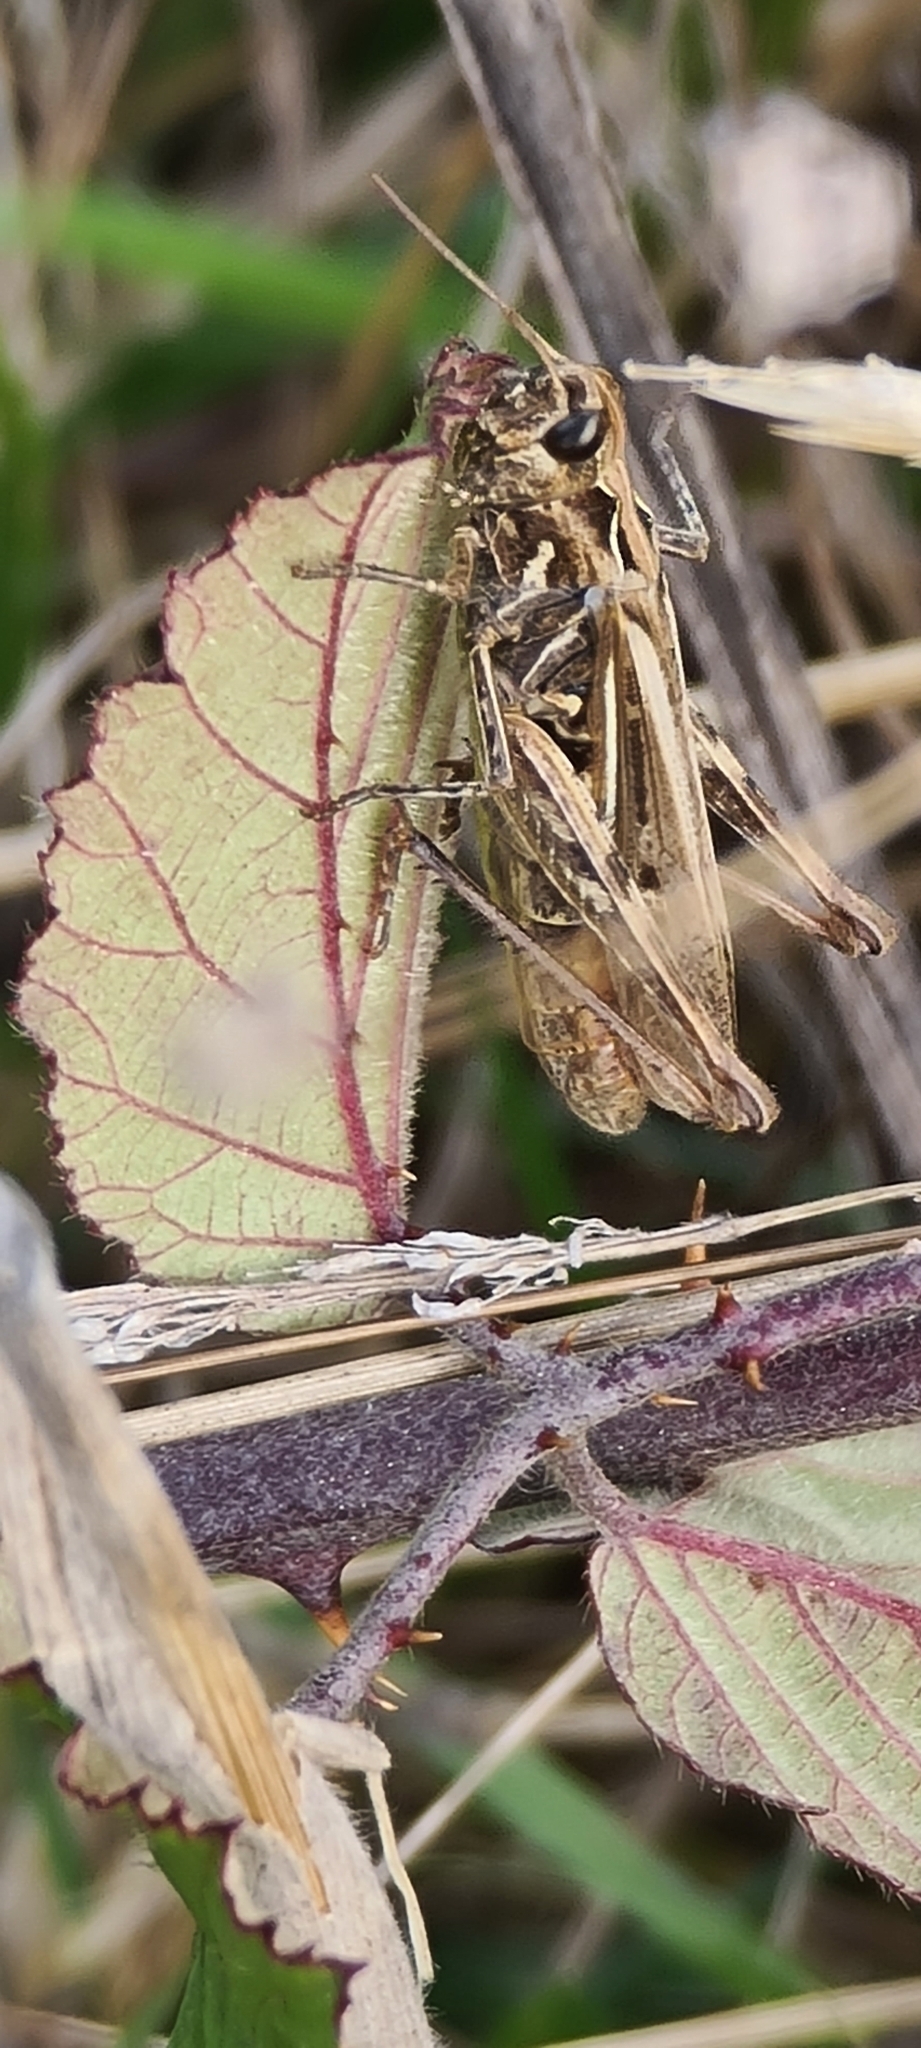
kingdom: Animalia
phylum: Arthropoda
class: Insecta
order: Orthoptera
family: Acrididae
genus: Chorthippus
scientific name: Chorthippus brunneus
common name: Field grasshopper
